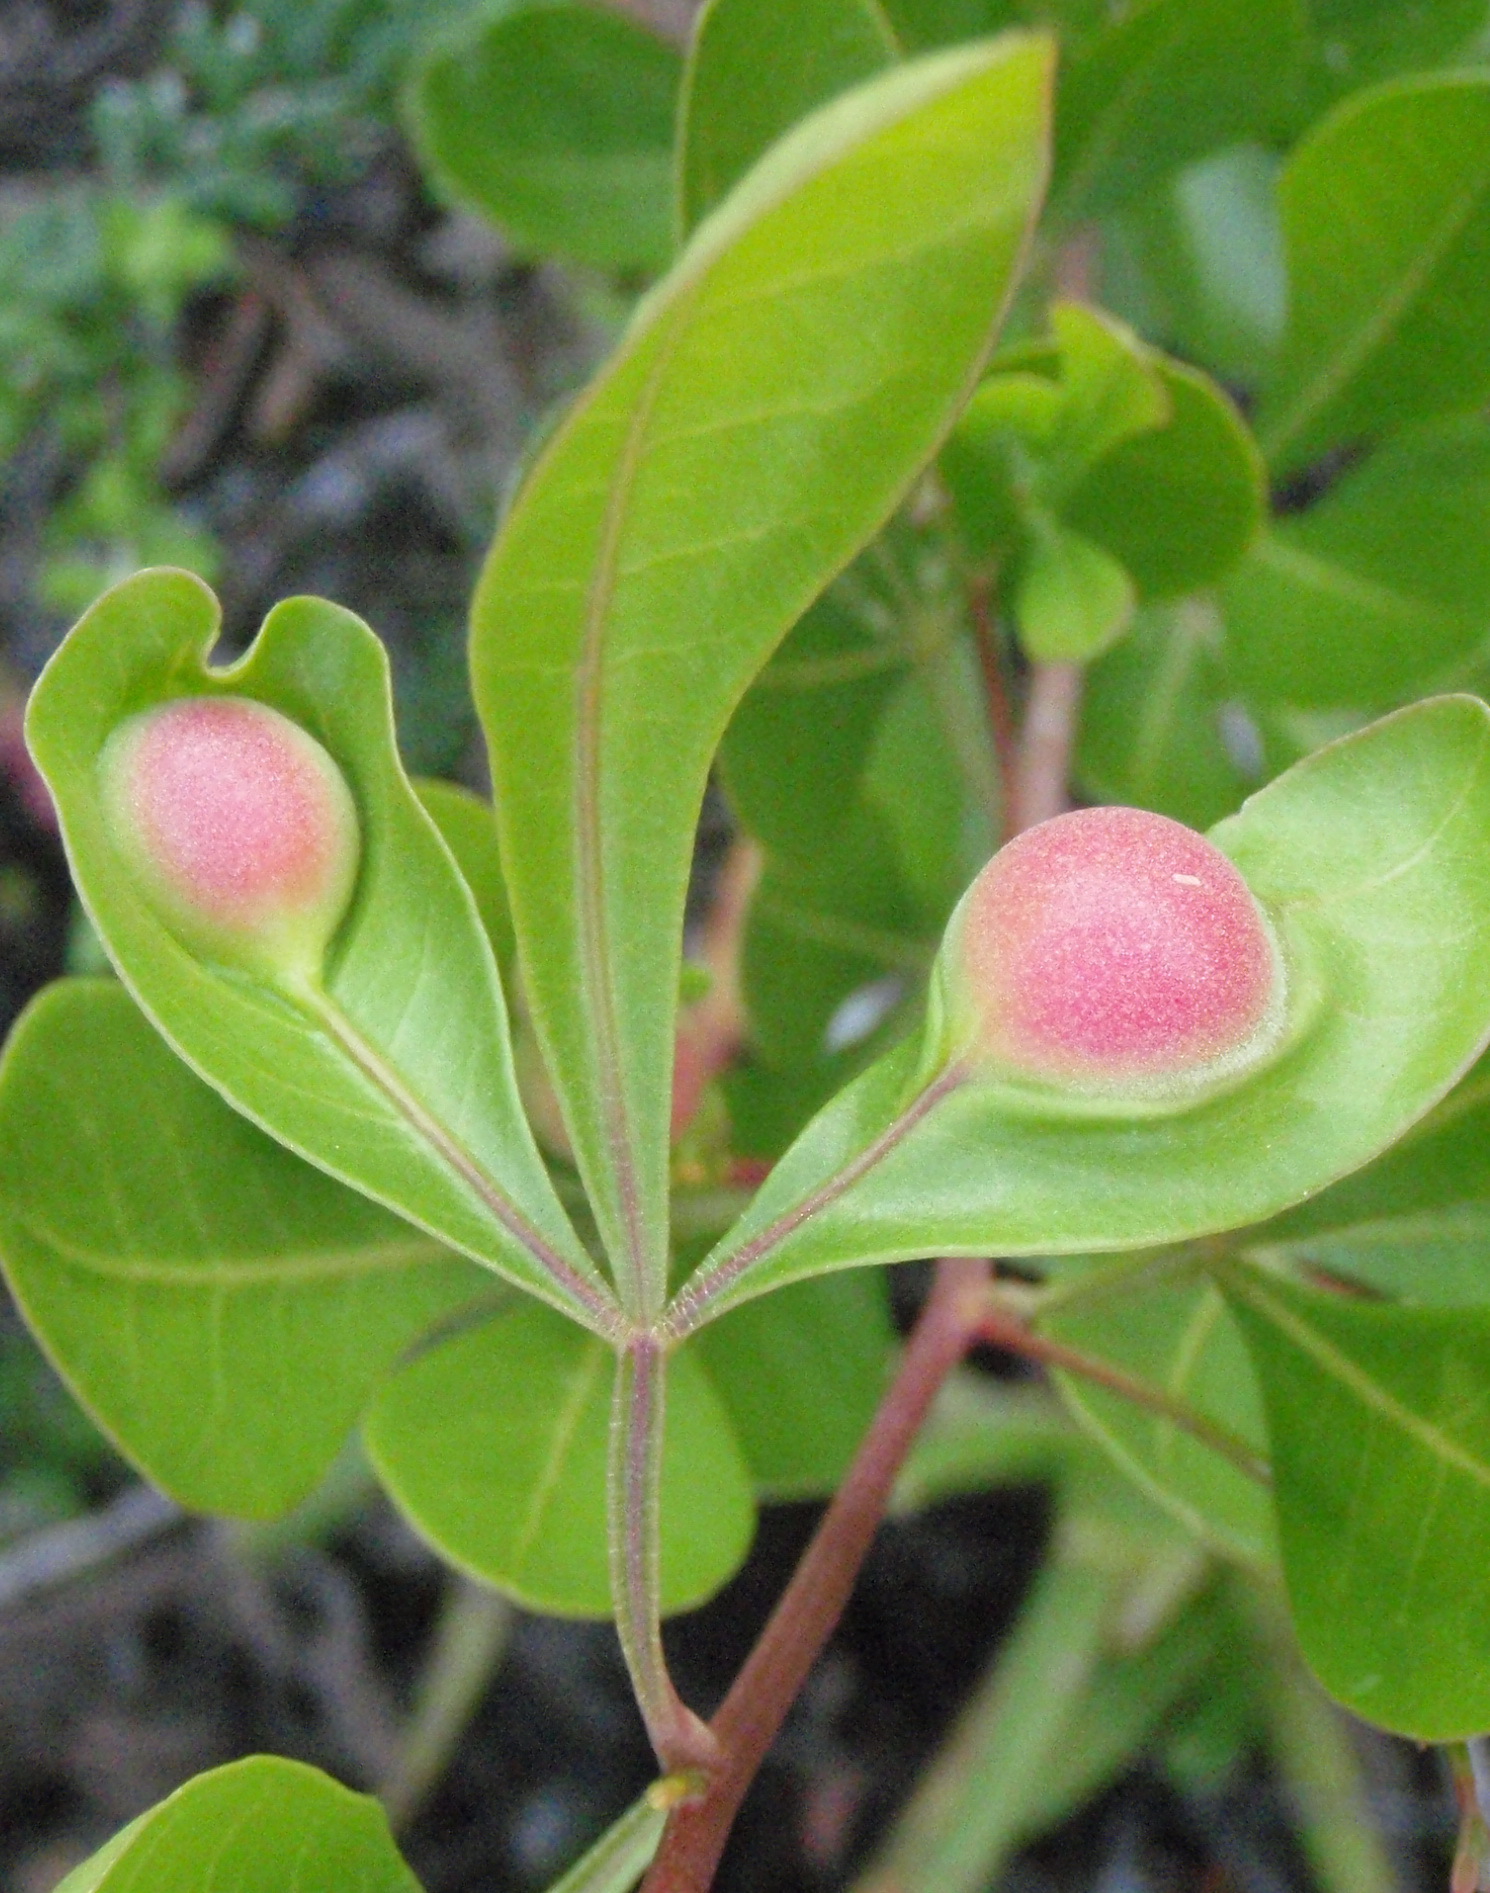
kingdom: Plantae
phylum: Tracheophyta
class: Magnoliopsida
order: Sapindales
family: Anacardiaceae
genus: Searsia
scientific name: Searsia lucida
